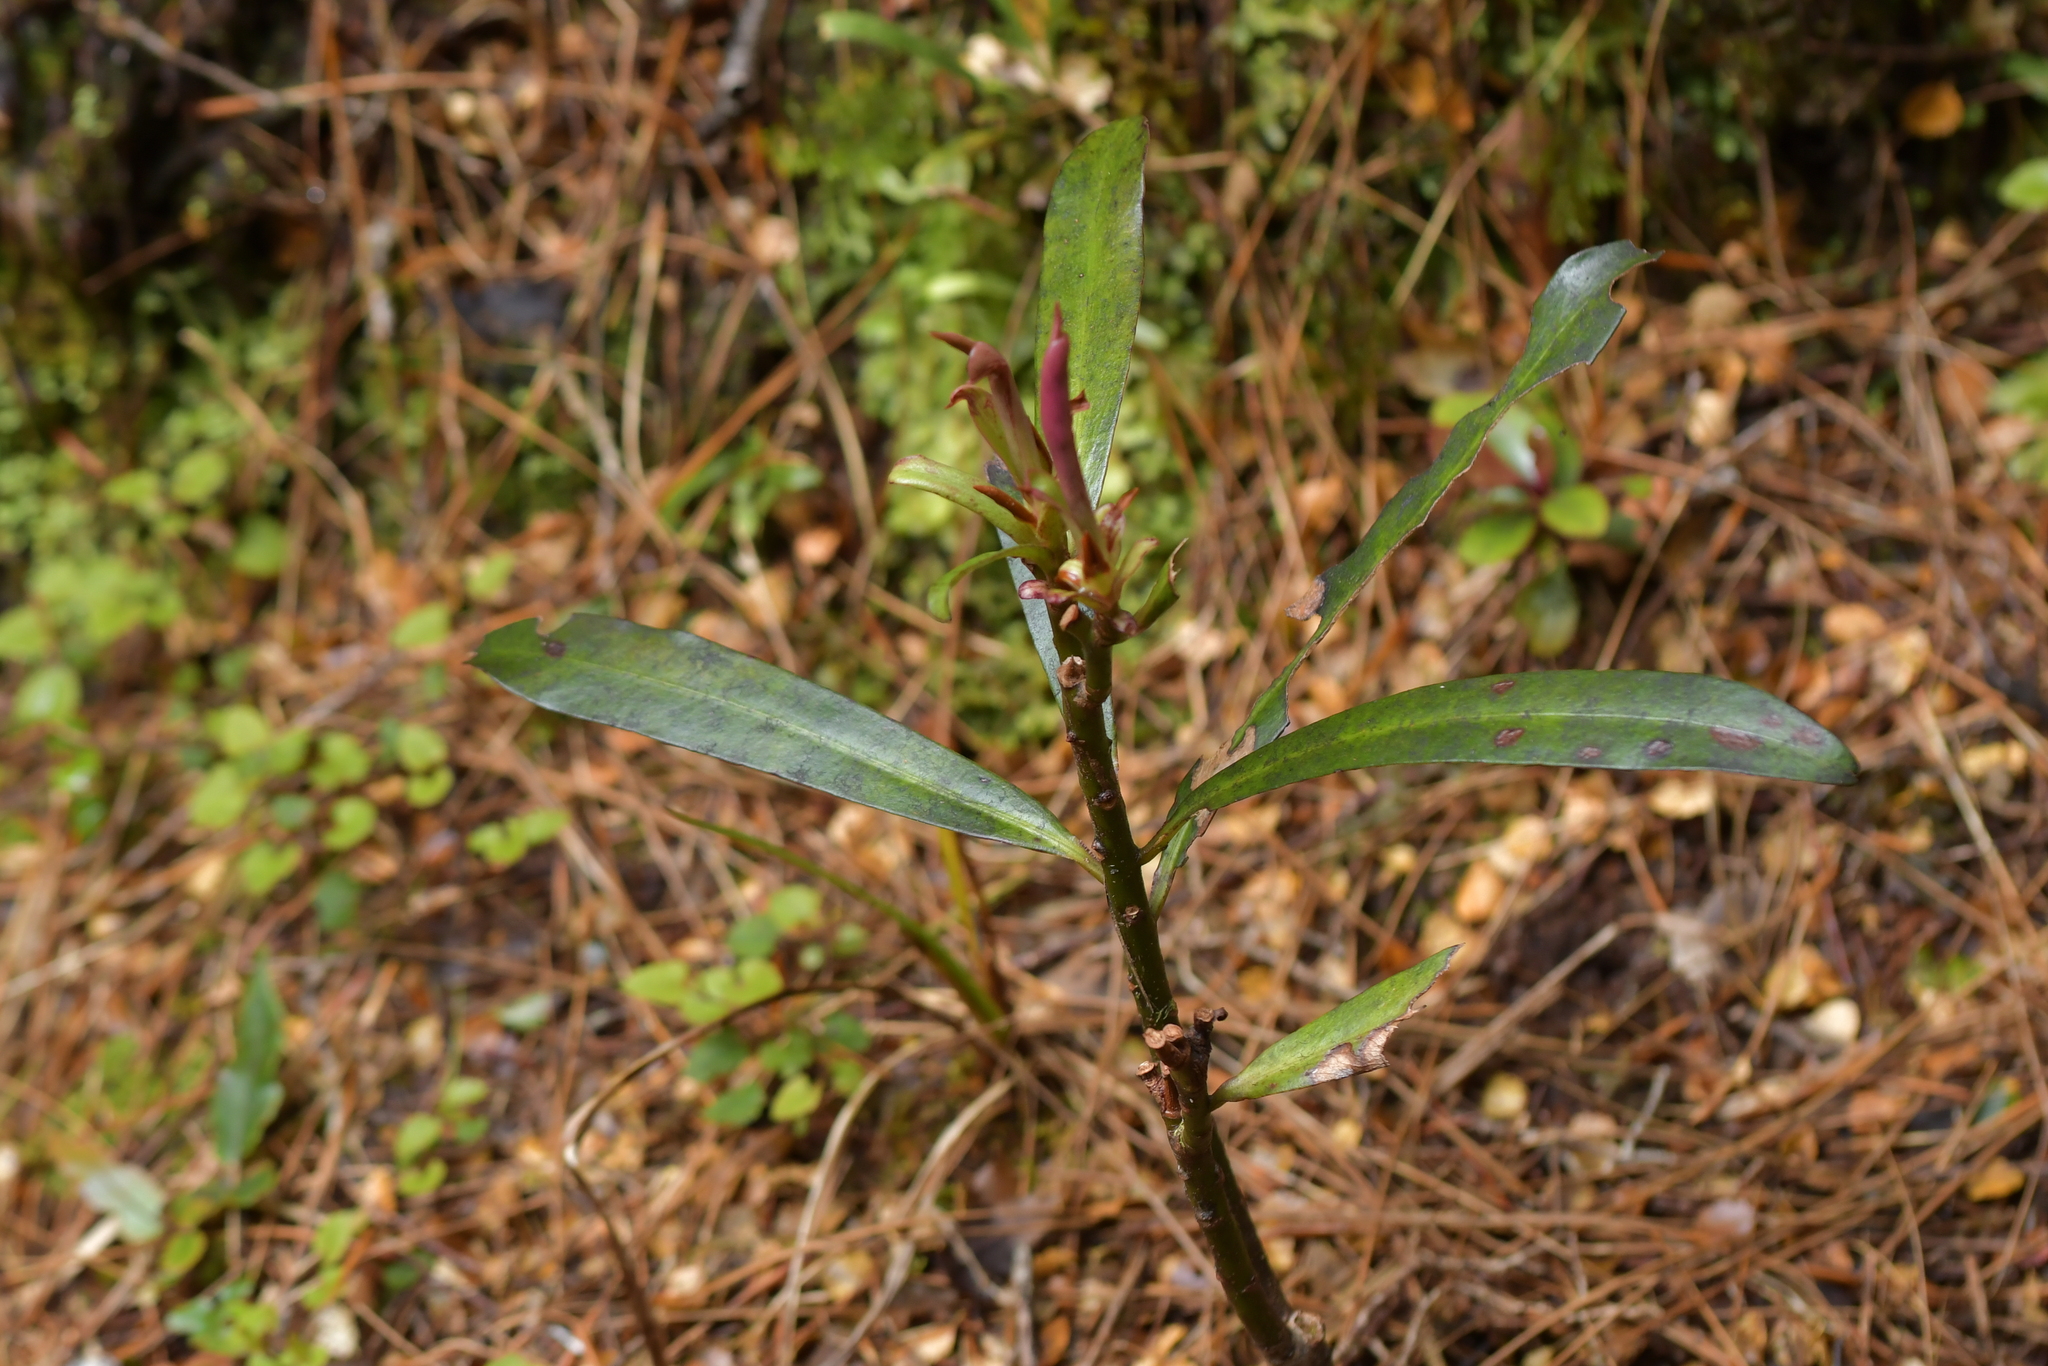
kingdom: Plantae
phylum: Tracheophyta
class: Magnoliopsida
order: Ericales
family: Primulaceae
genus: Myrsine
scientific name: Myrsine salicina
